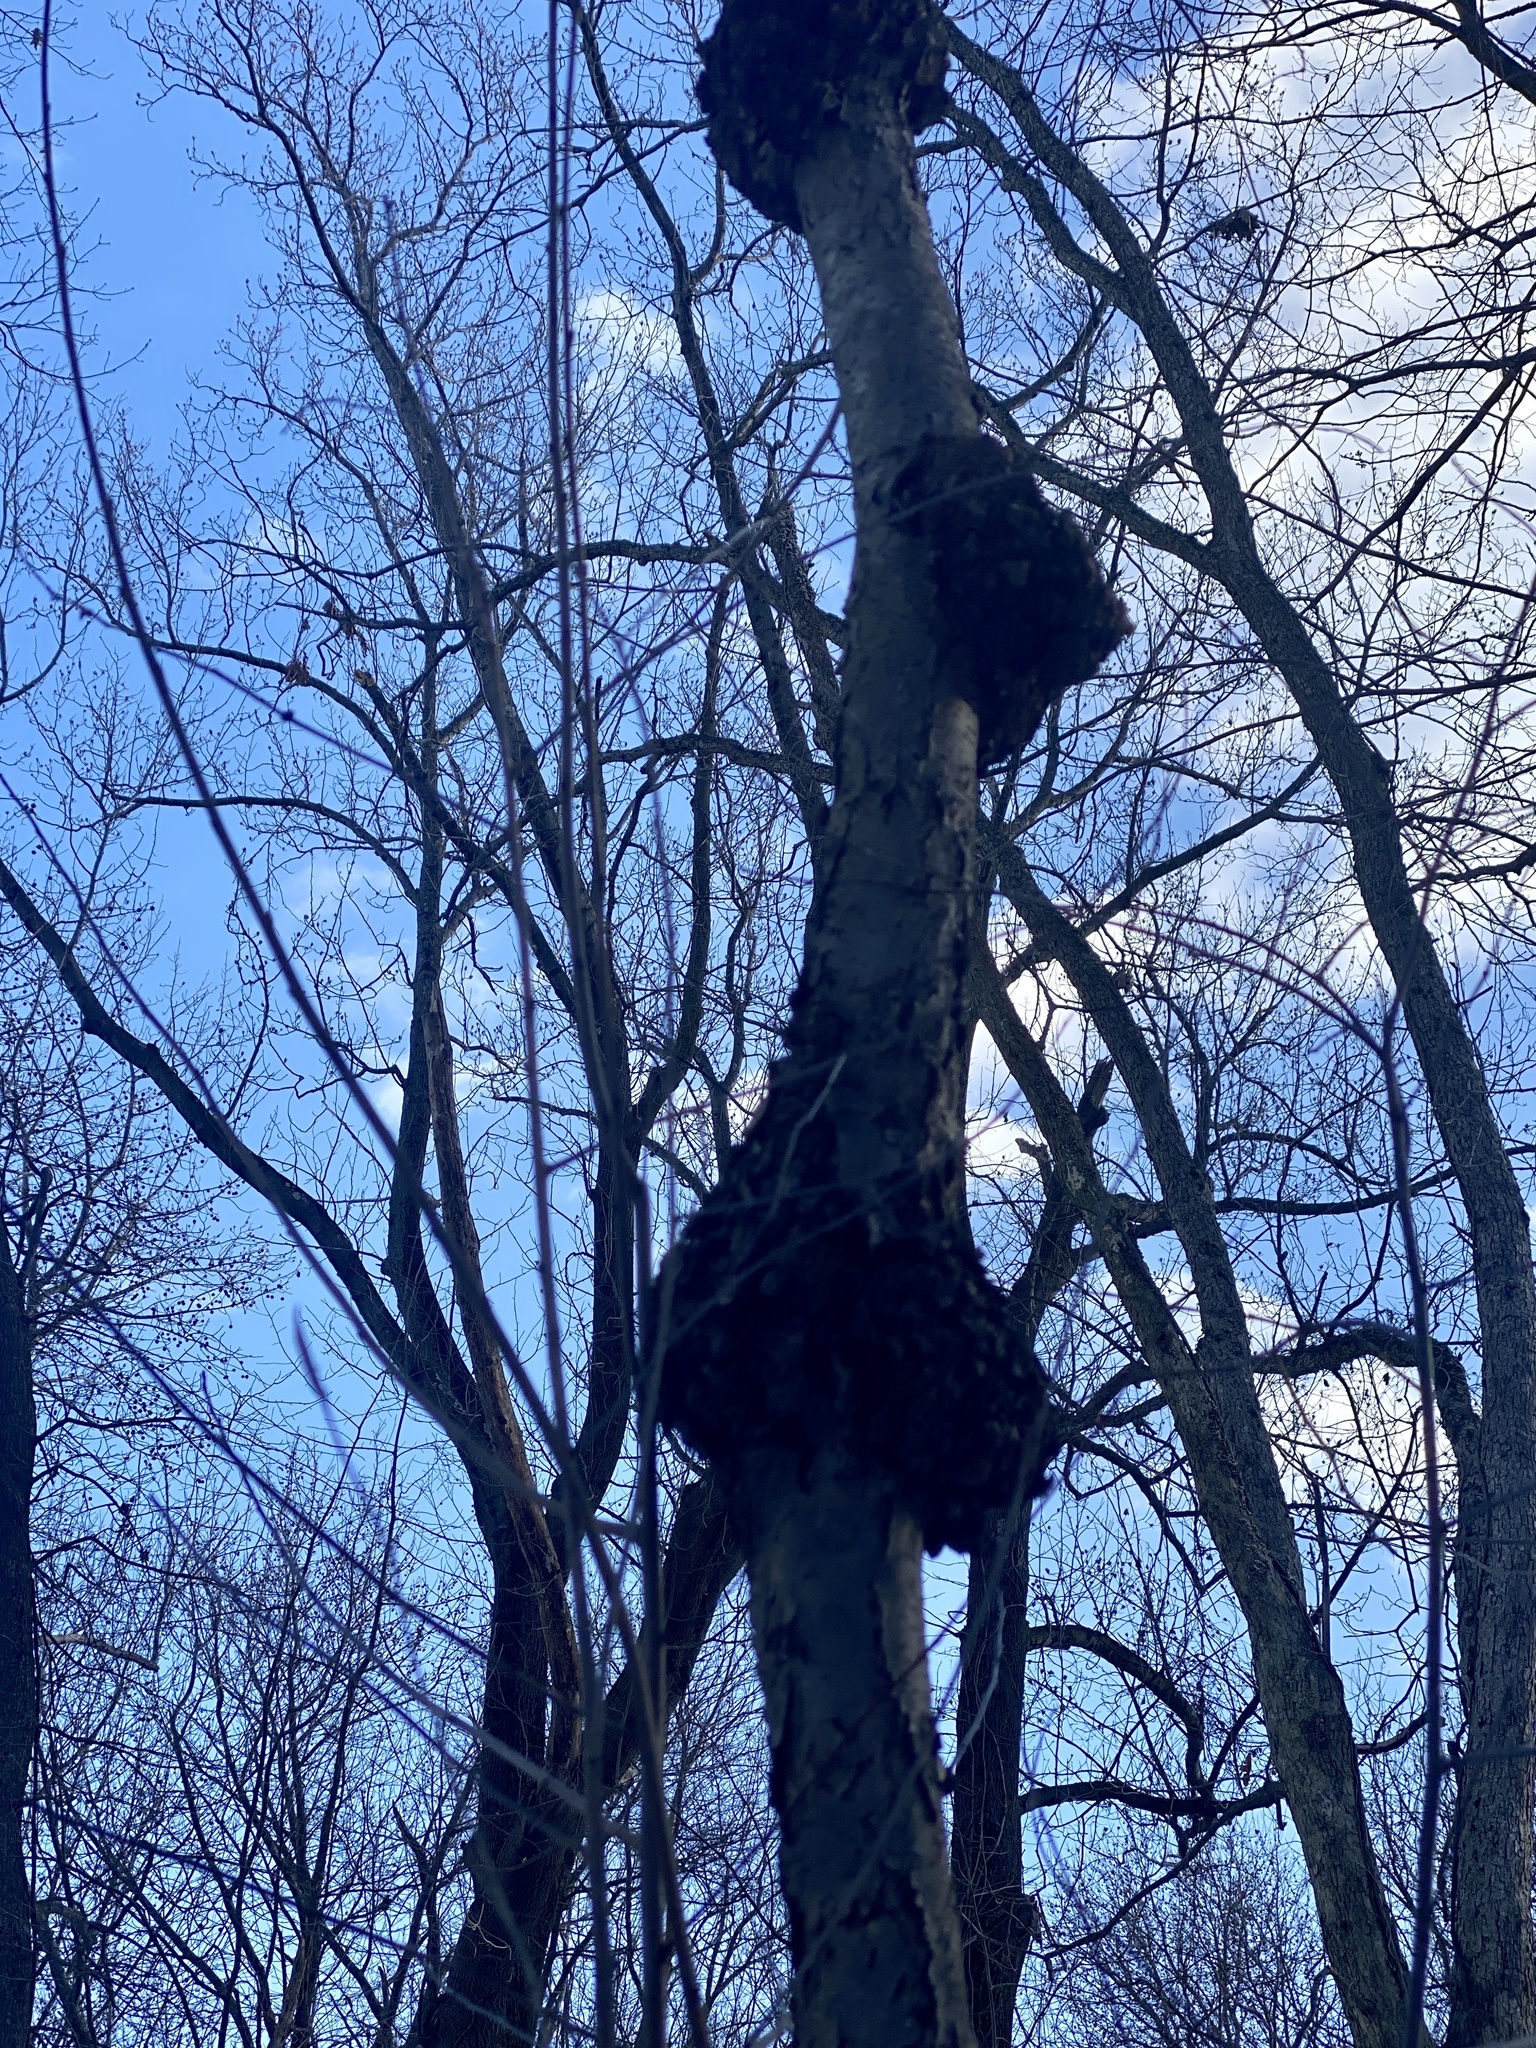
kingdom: Fungi
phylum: Ascomycota
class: Dothideomycetes
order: Venturiales
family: Venturiaceae
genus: Apiosporina
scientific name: Apiosporina morbosa
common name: Black knot
